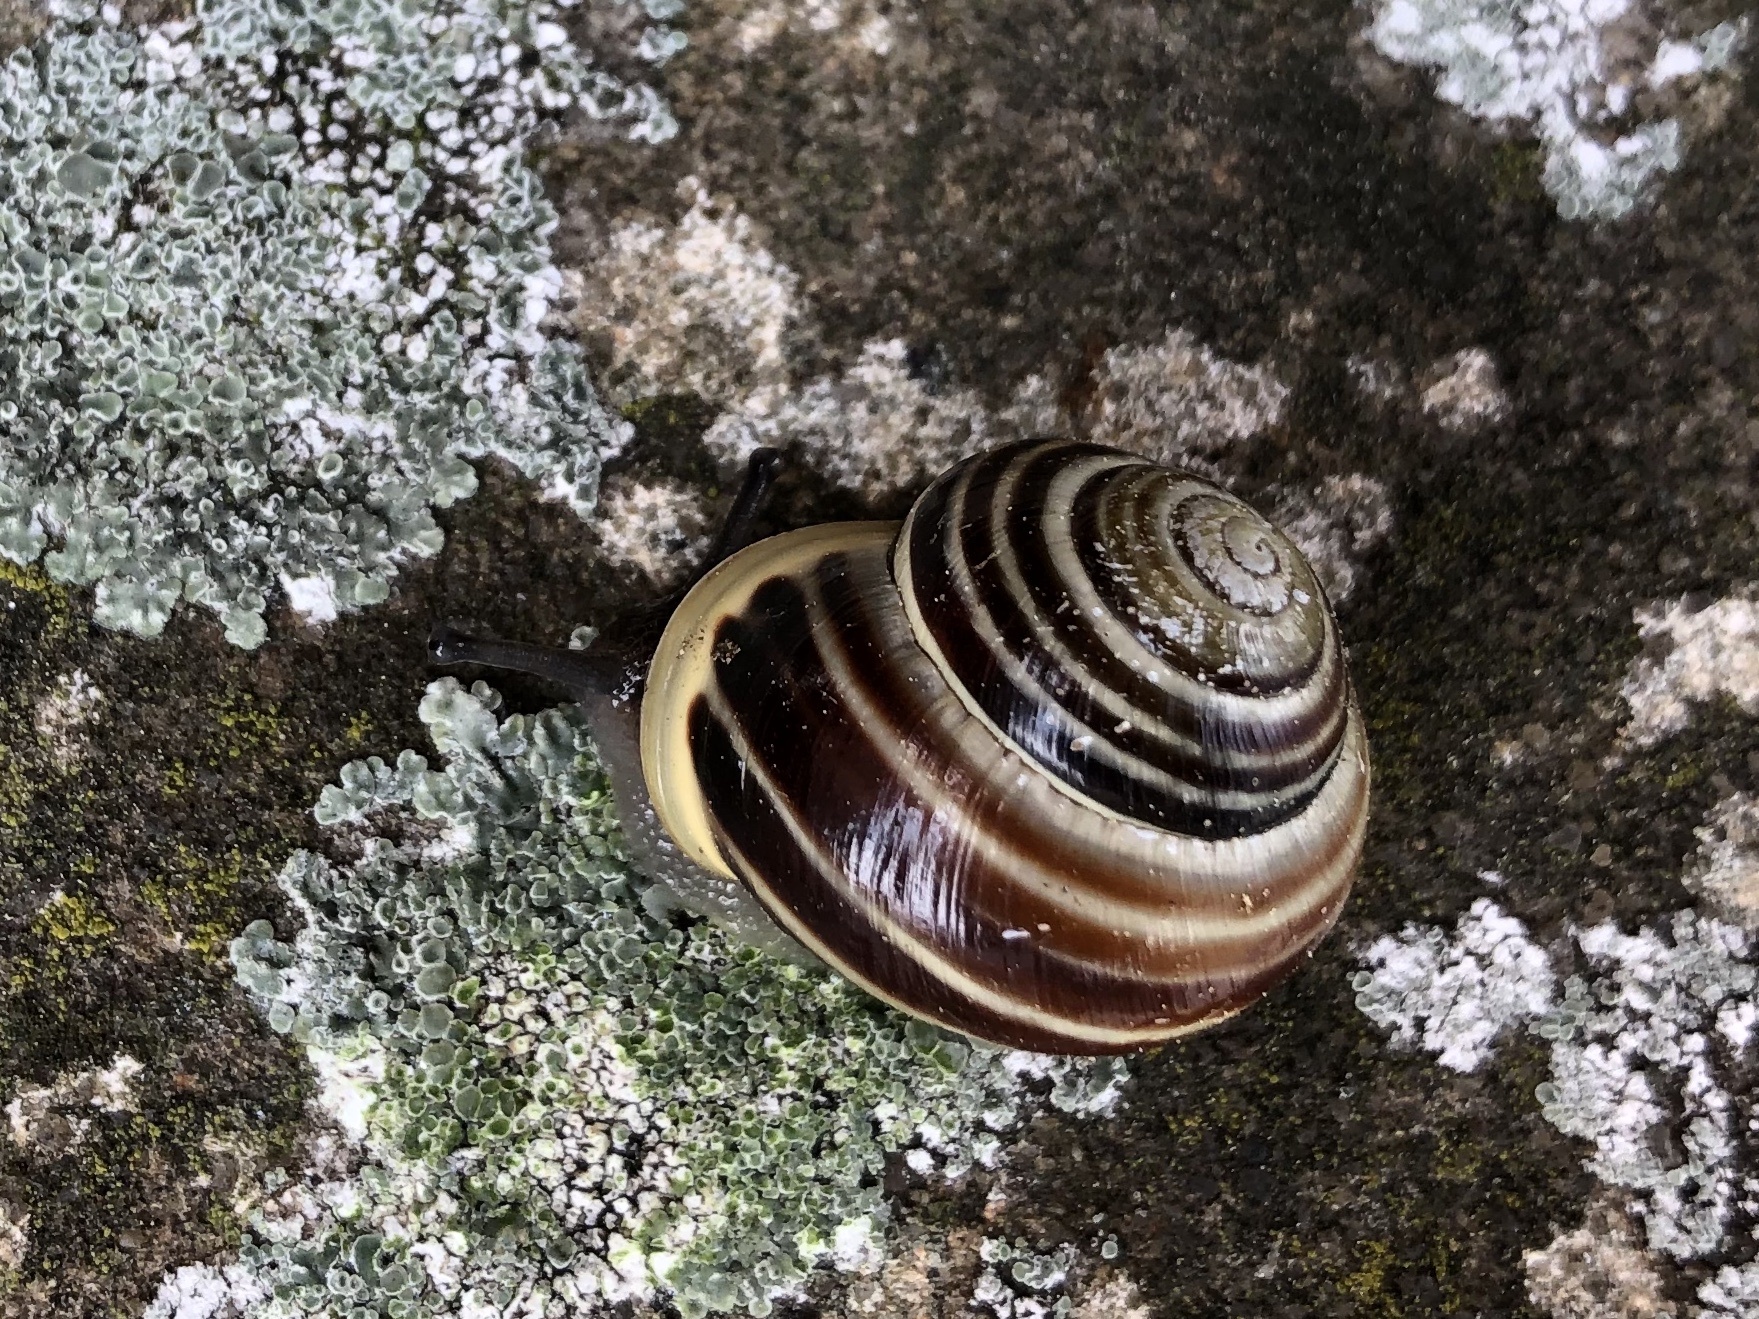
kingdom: Animalia
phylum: Mollusca
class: Gastropoda
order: Stylommatophora
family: Helicidae
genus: Cepaea
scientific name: Cepaea hortensis
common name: White-lip gardensnail
